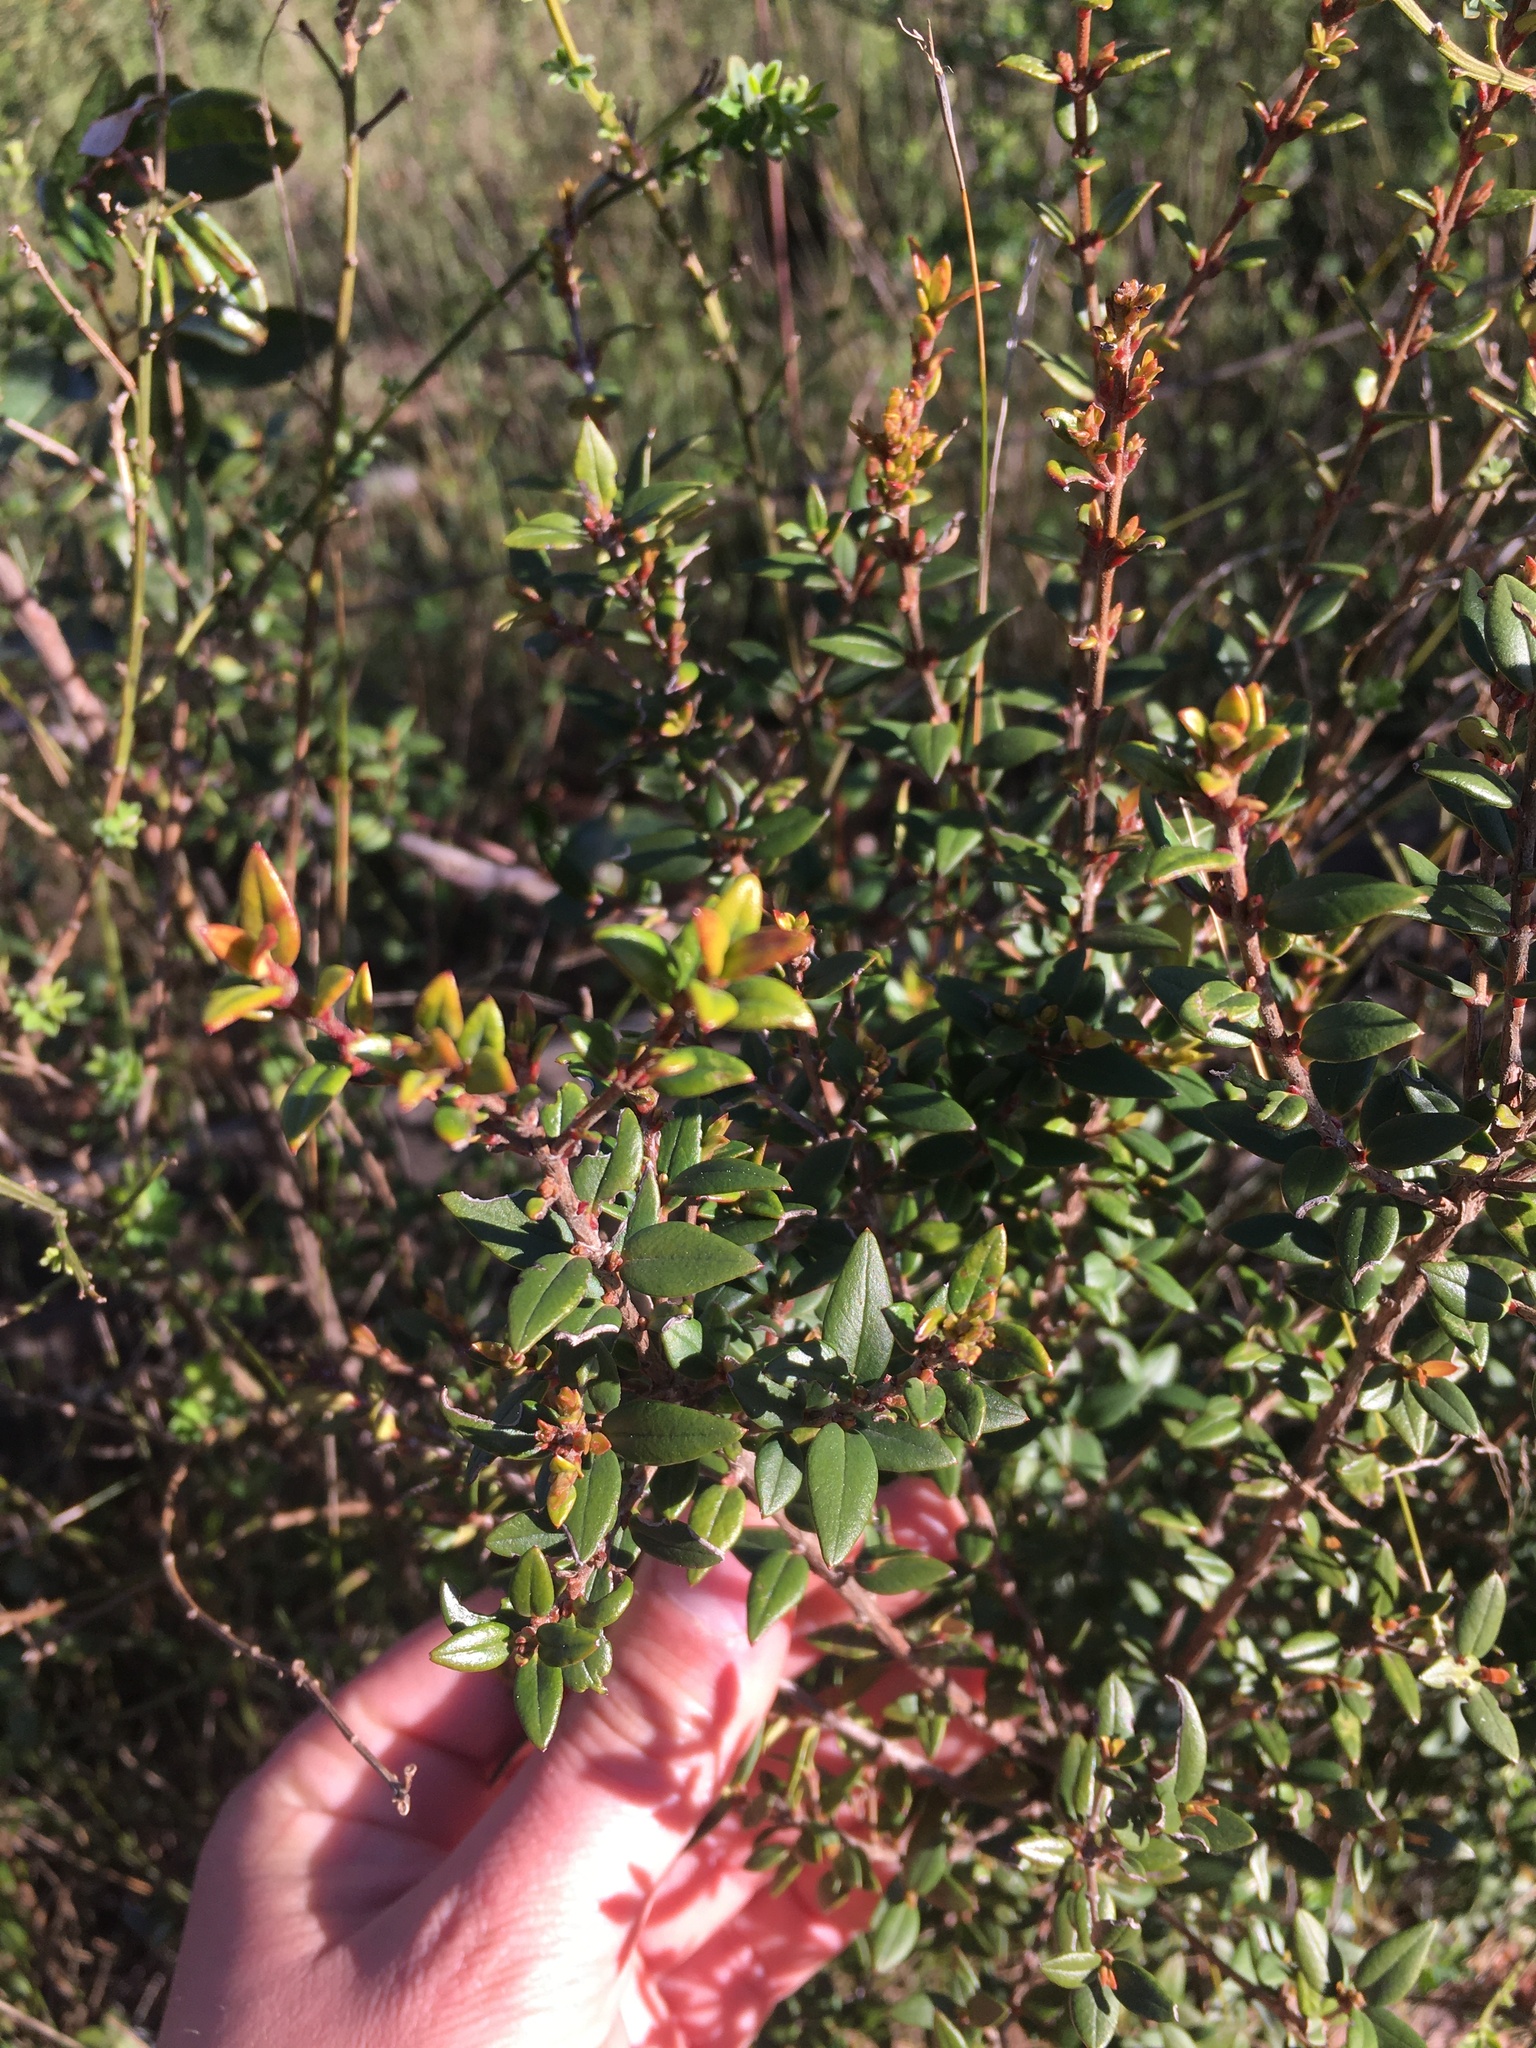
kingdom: Plantae
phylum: Tracheophyta
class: Magnoliopsida
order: Myrtales
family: Myrtaceae
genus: Ugni
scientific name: Ugni molinae
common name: Chilean-guava
